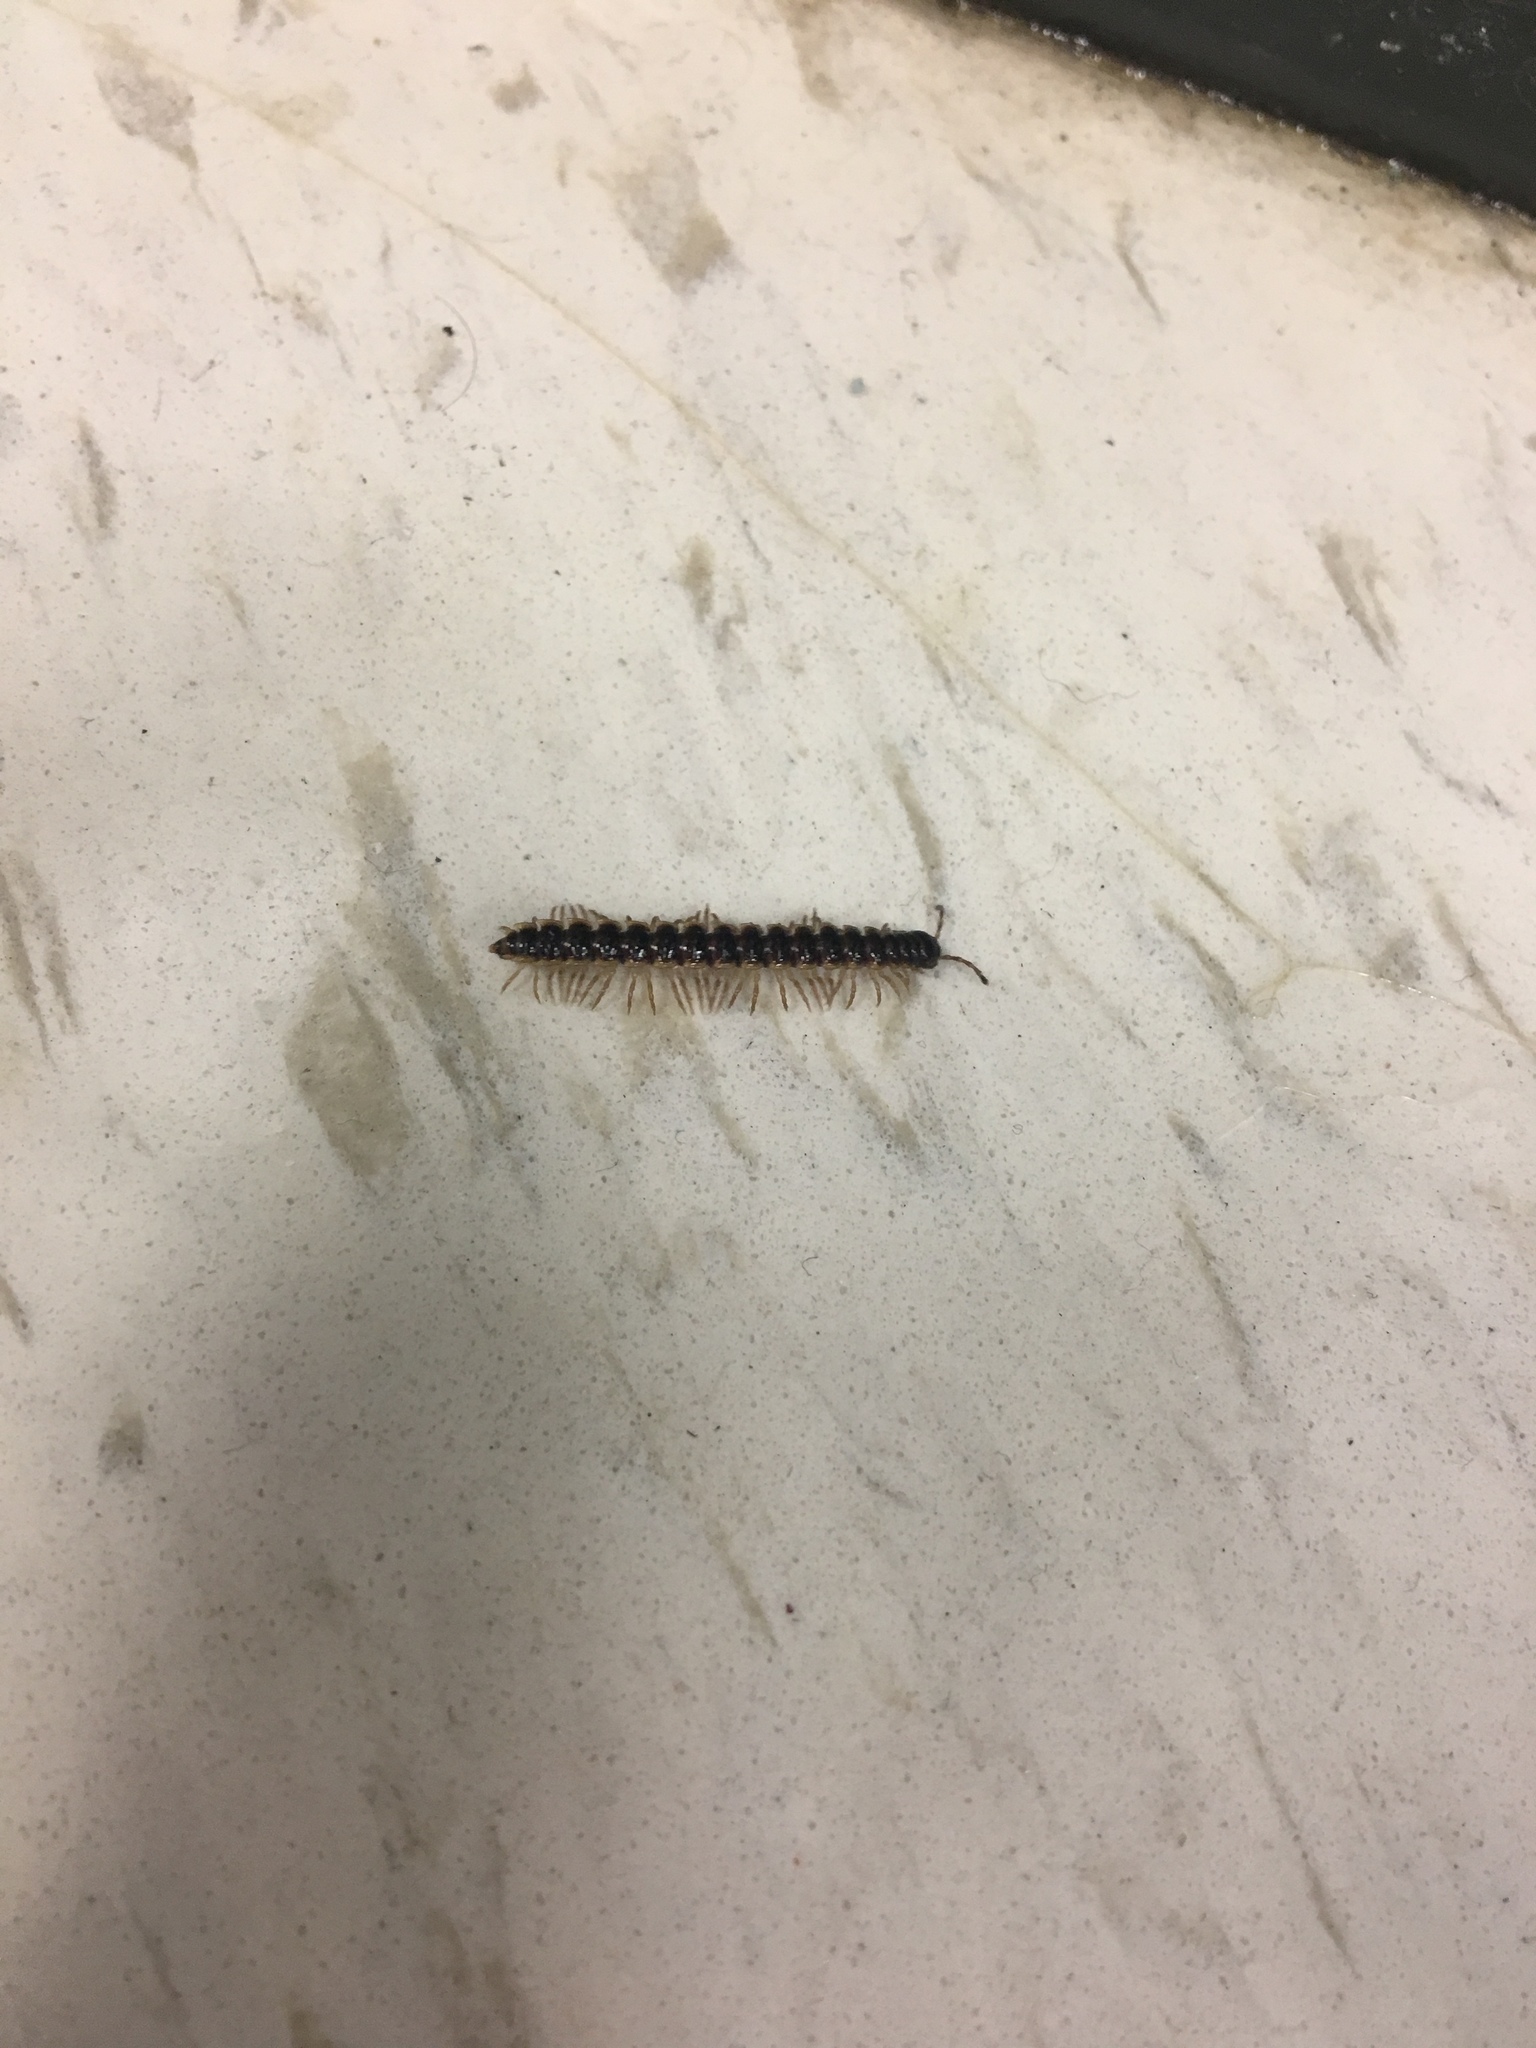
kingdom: Animalia
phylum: Arthropoda
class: Diplopoda
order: Polydesmida
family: Paradoxosomatidae
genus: Oxidus
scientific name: Oxidus gracilis
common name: Greenhouse millipede
